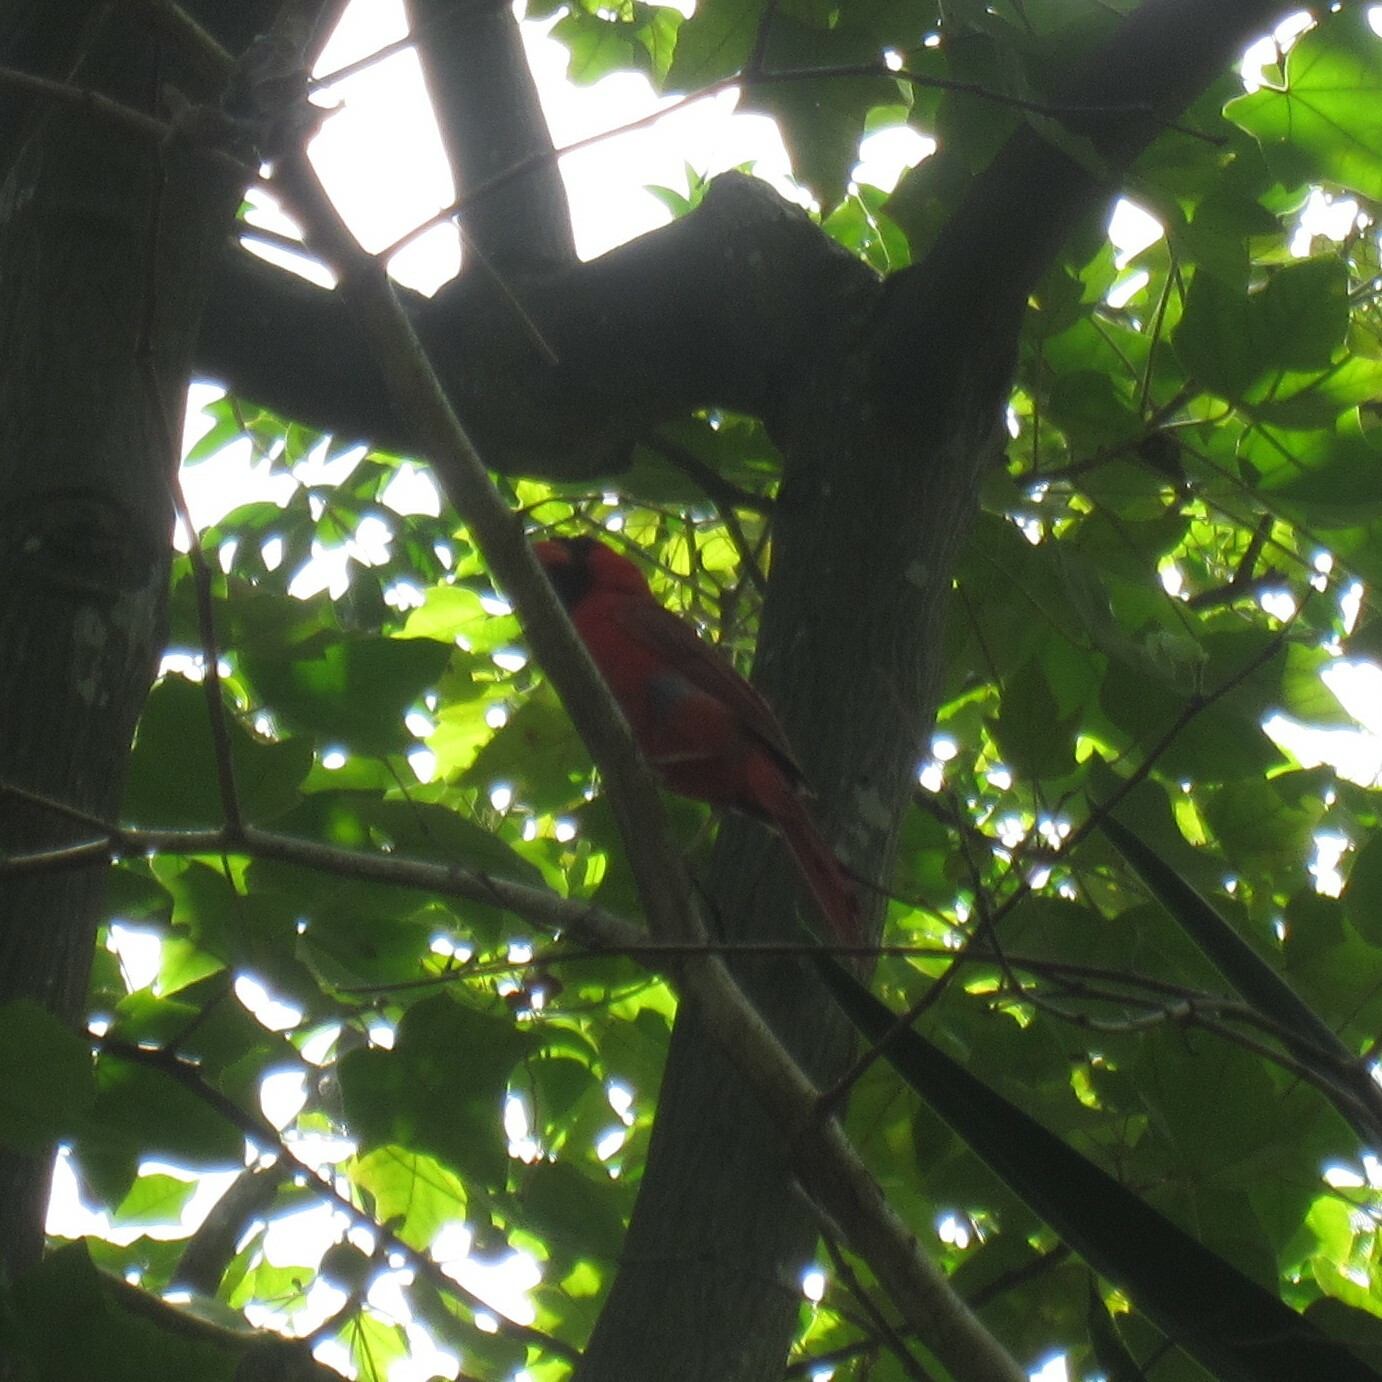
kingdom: Animalia
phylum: Chordata
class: Aves
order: Passeriformes
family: Cardinalidae
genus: Cardinalis
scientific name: Cardinalis cardinalis
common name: Northern cardinal
